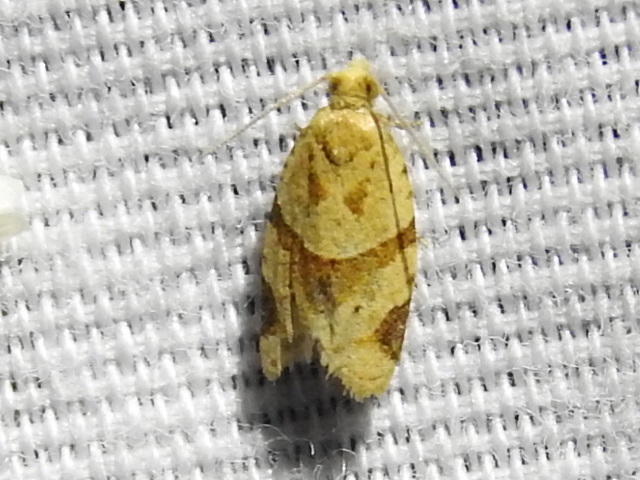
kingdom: Animalia
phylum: Arthropoda
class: Insecta
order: Lepidoptera
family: Tortricidae
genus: Clepsis
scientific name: Clepsis peritana
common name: Garden tortrix
